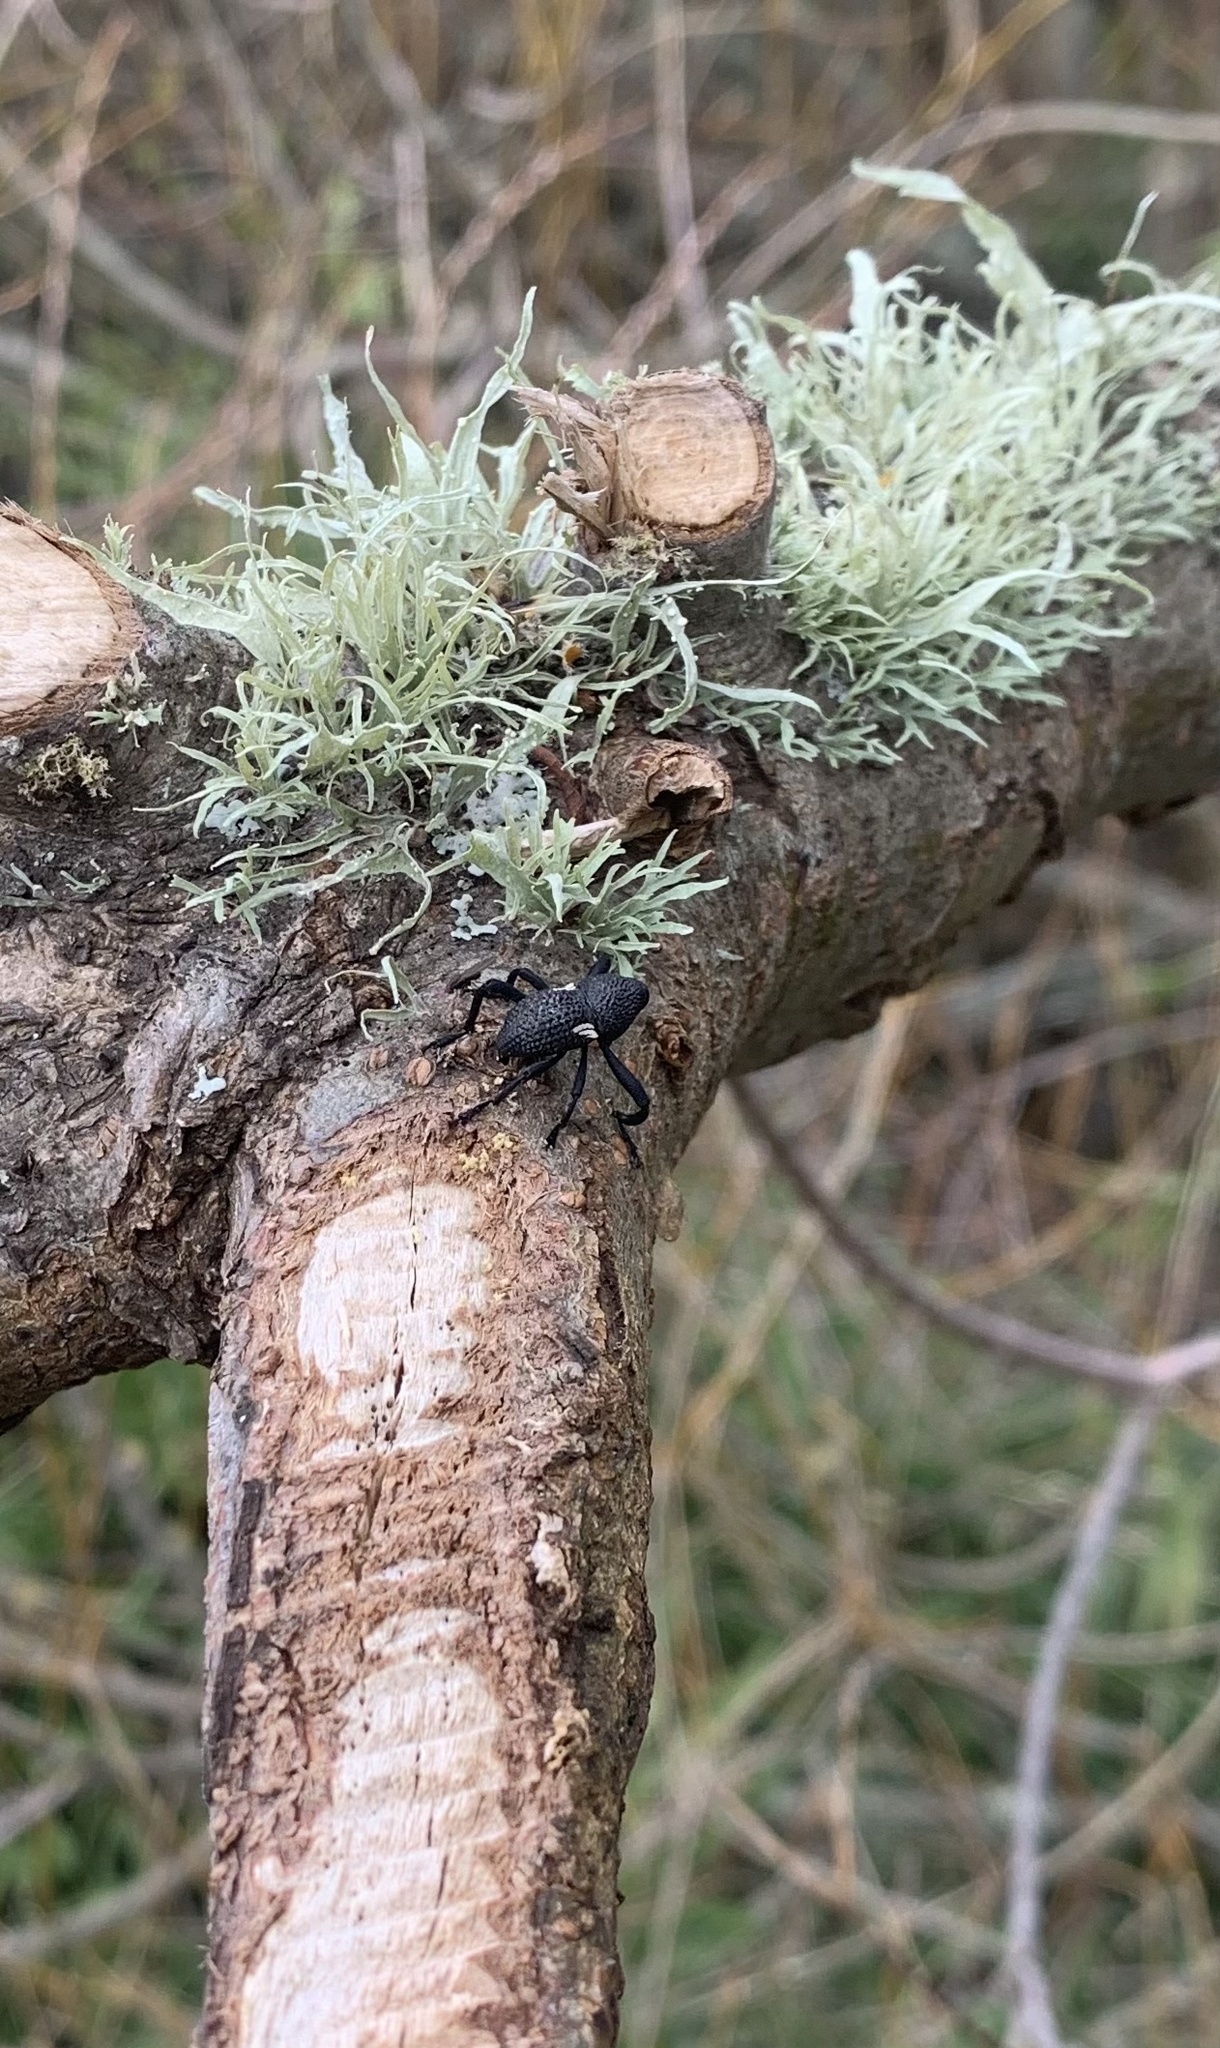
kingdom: Animalia
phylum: Arthropoda
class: Insecta
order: Coleoptera
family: Curculionidae
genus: Rhyephenes
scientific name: Rhyephenes humeralis
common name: Araè±ita chilena del pino
